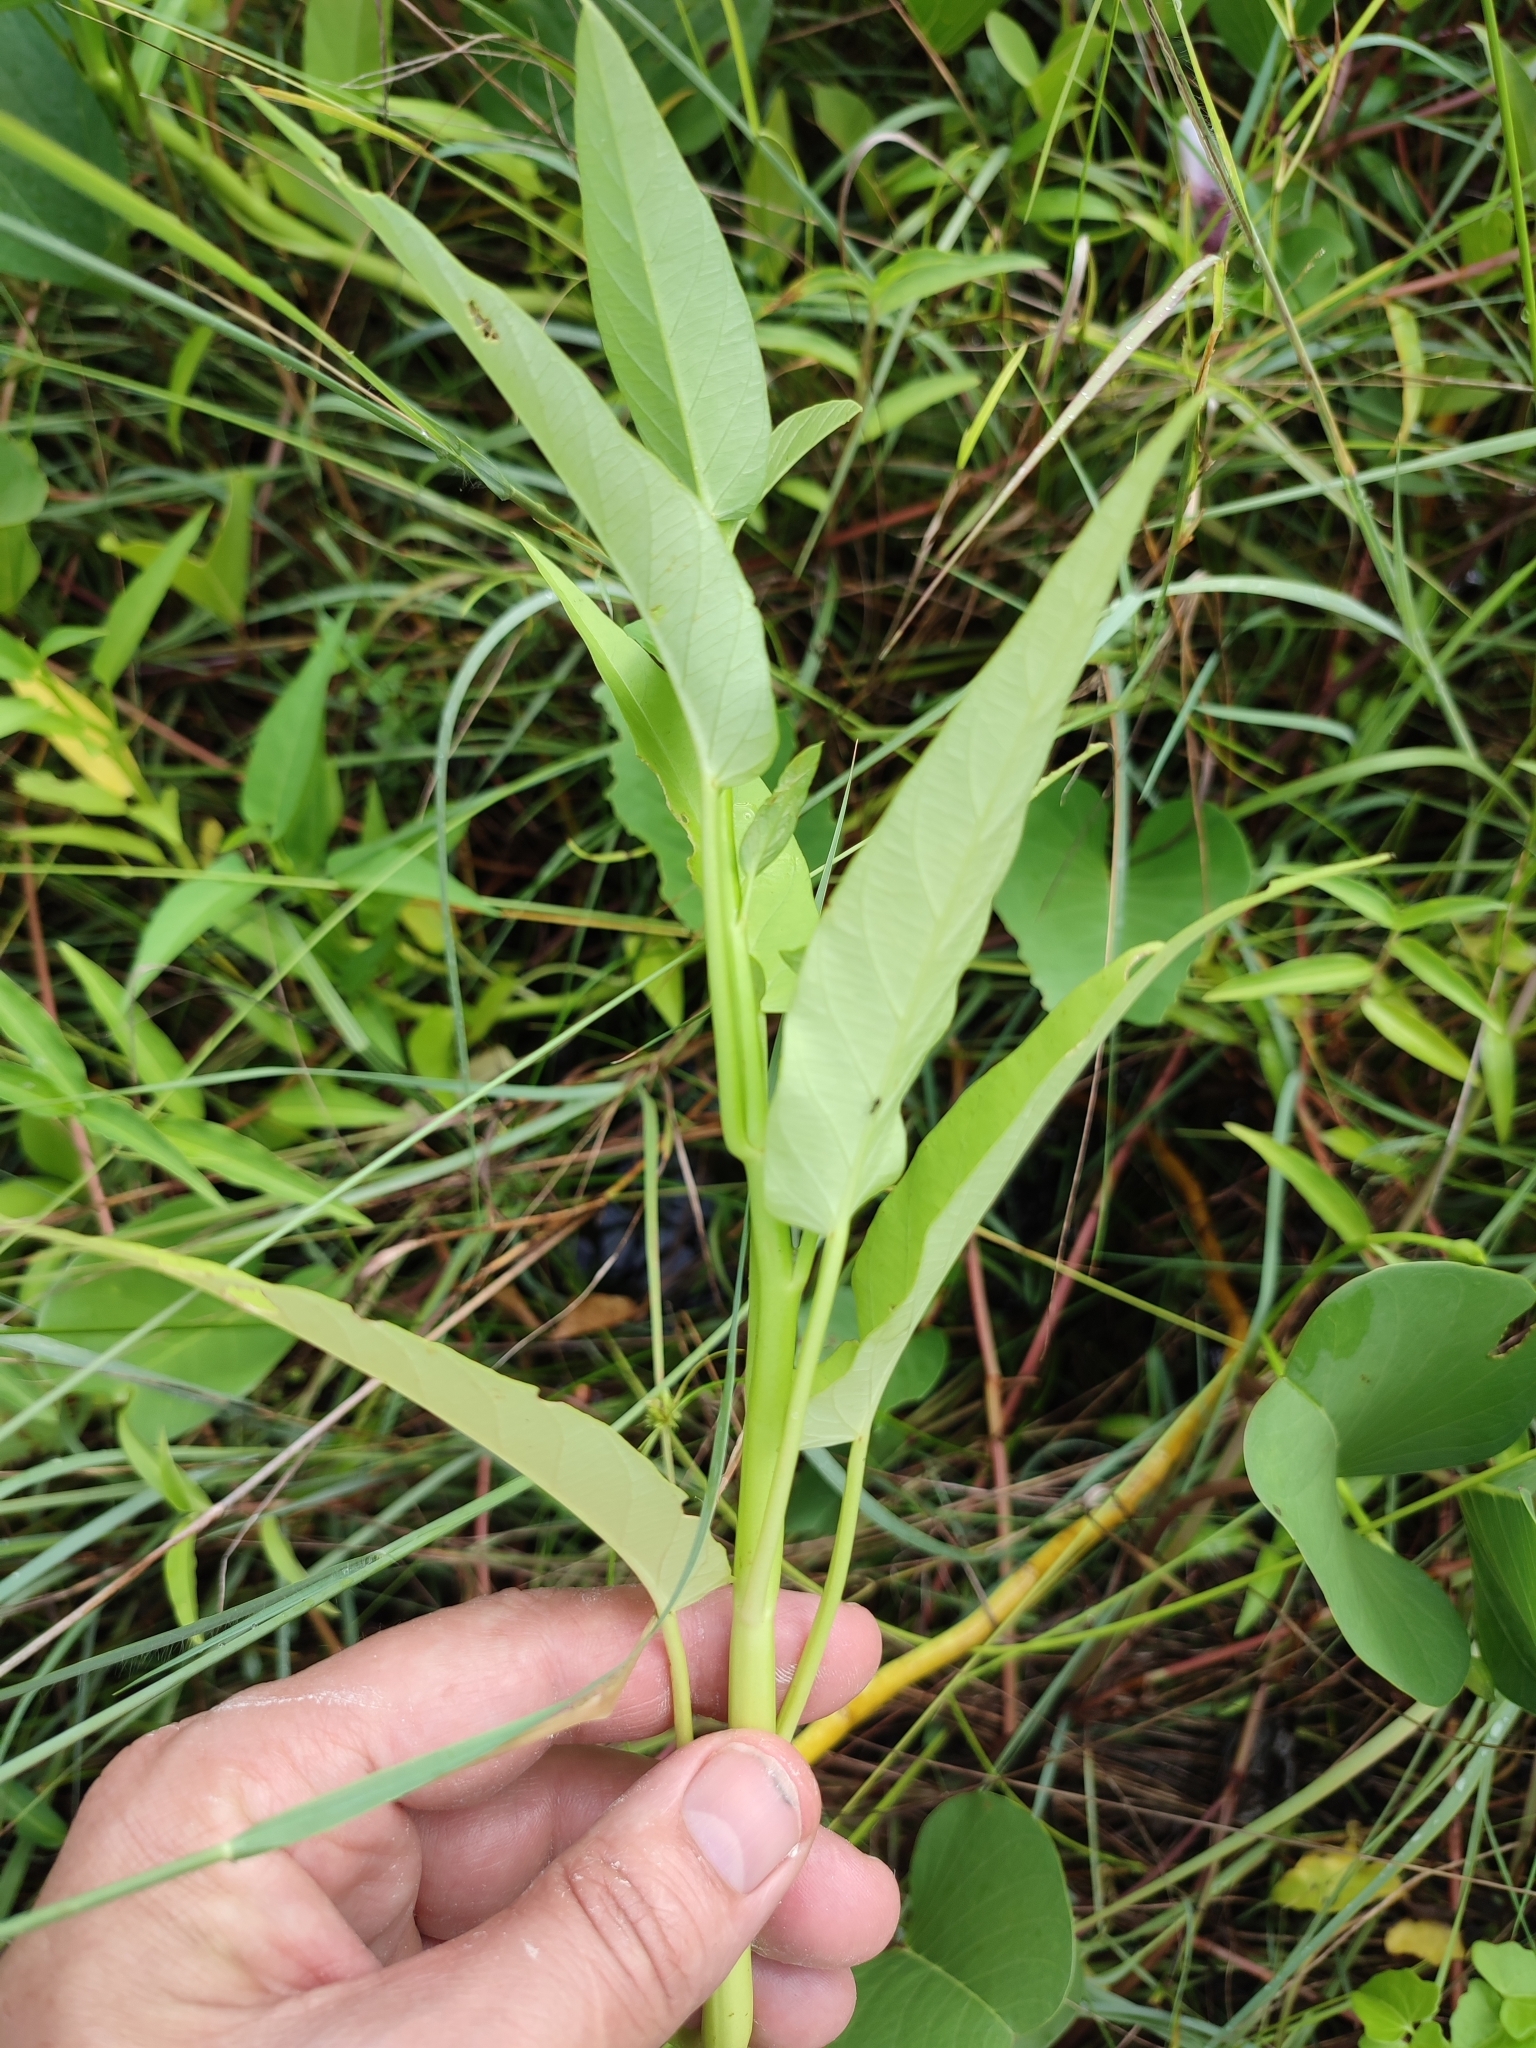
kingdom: Plantae
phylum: Tracheophyta
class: Magnoliopsida
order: Solanales
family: Convolvulaceae
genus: Ipomoea
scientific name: Ipomoea aquatica
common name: Swamp morning-glory
